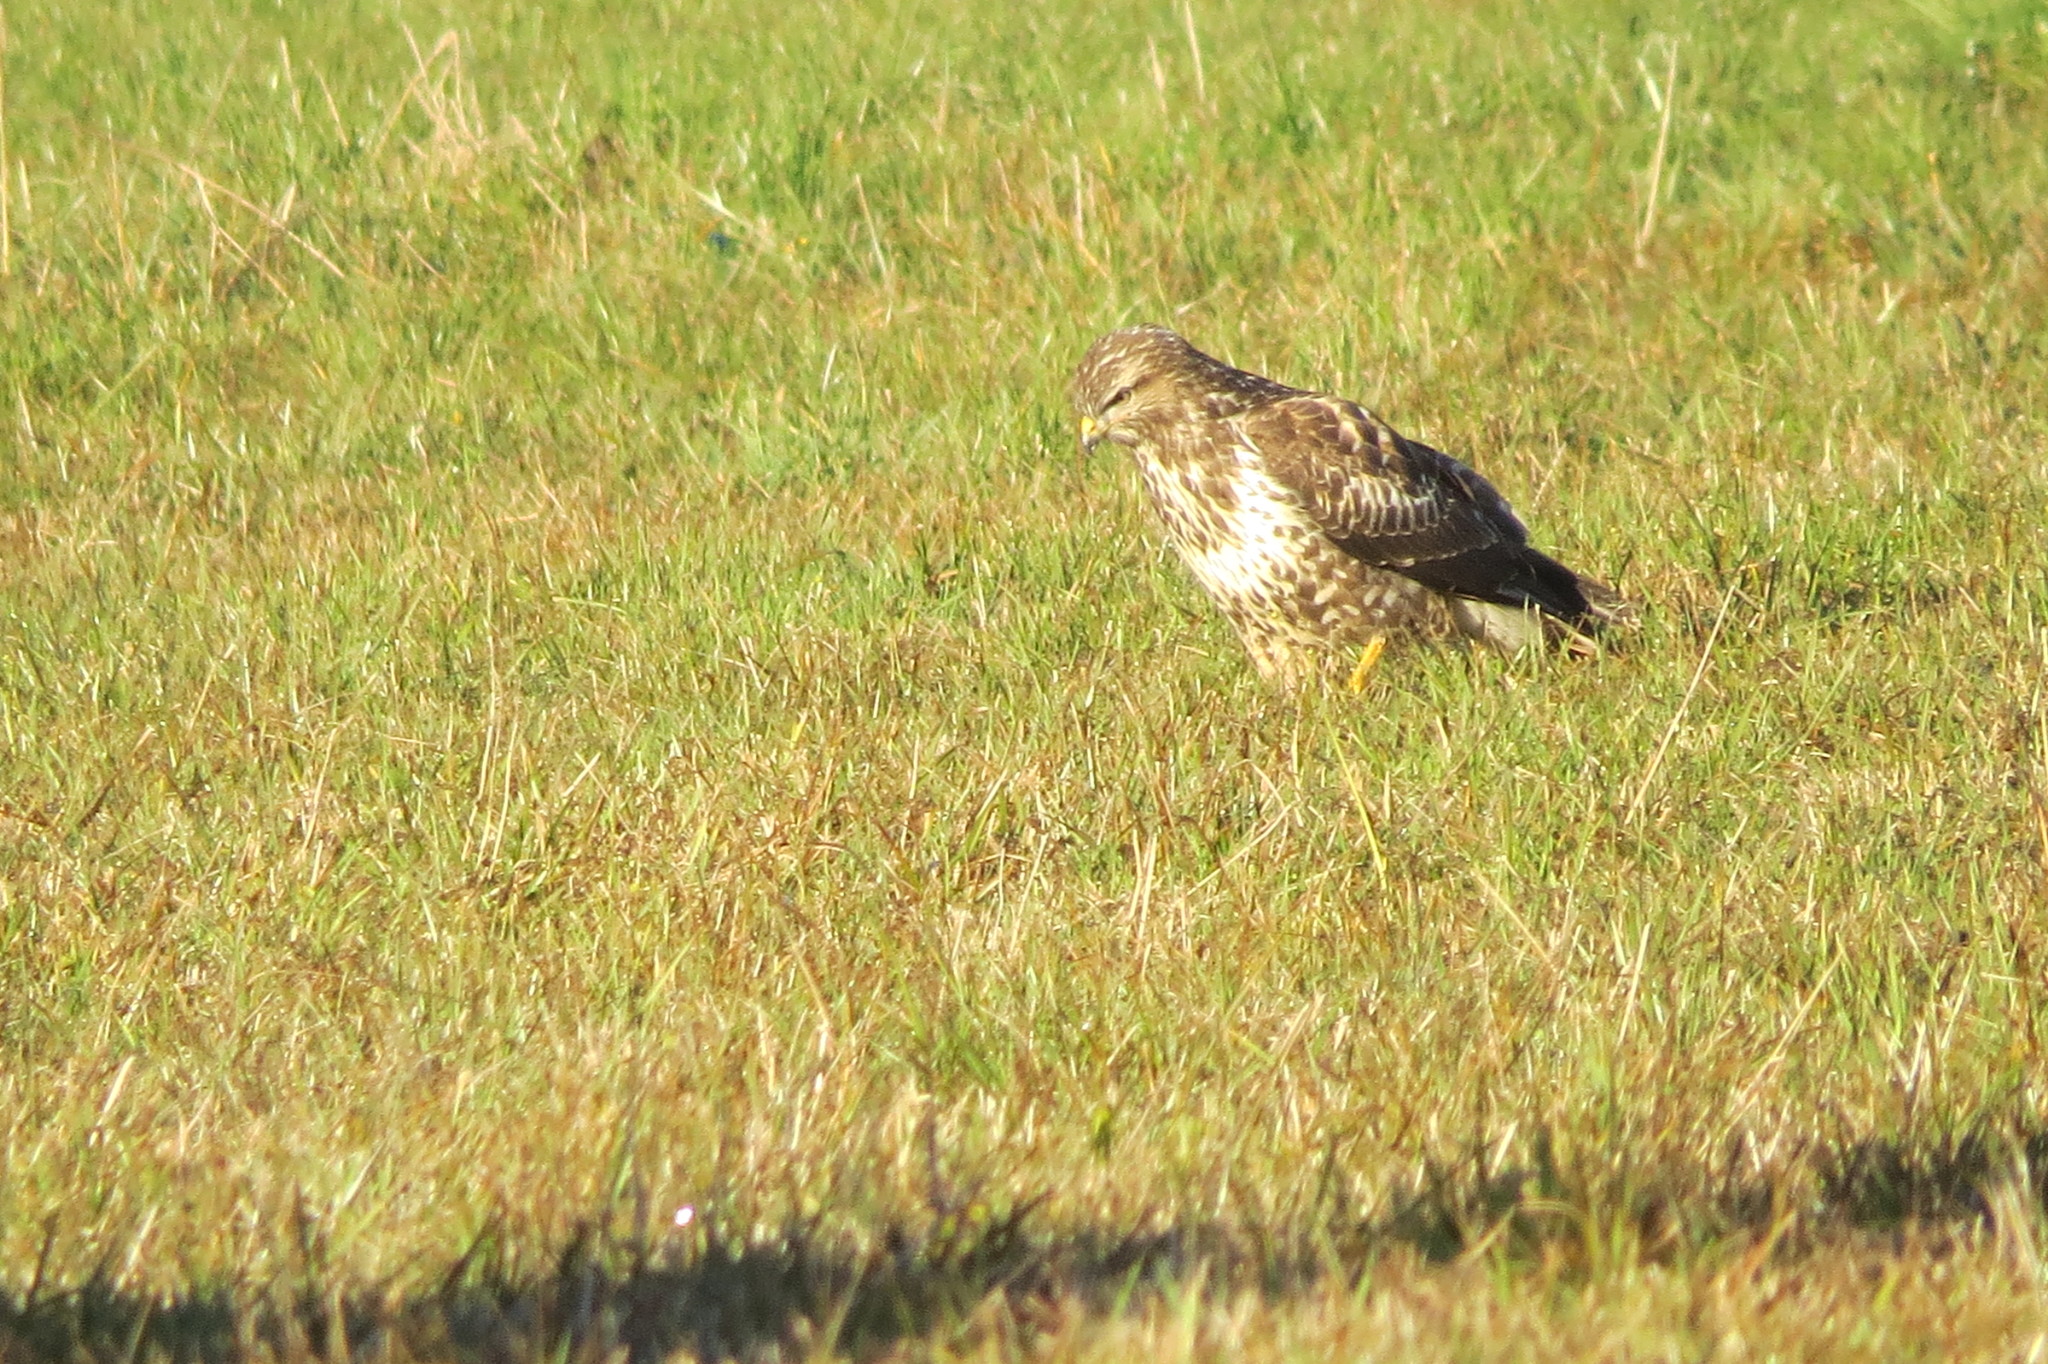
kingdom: Animalia
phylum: Chordata
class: Aves
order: Accipitriformes
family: Accipitridae
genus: Buteo
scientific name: Buteo buteo
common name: Common buzzard
